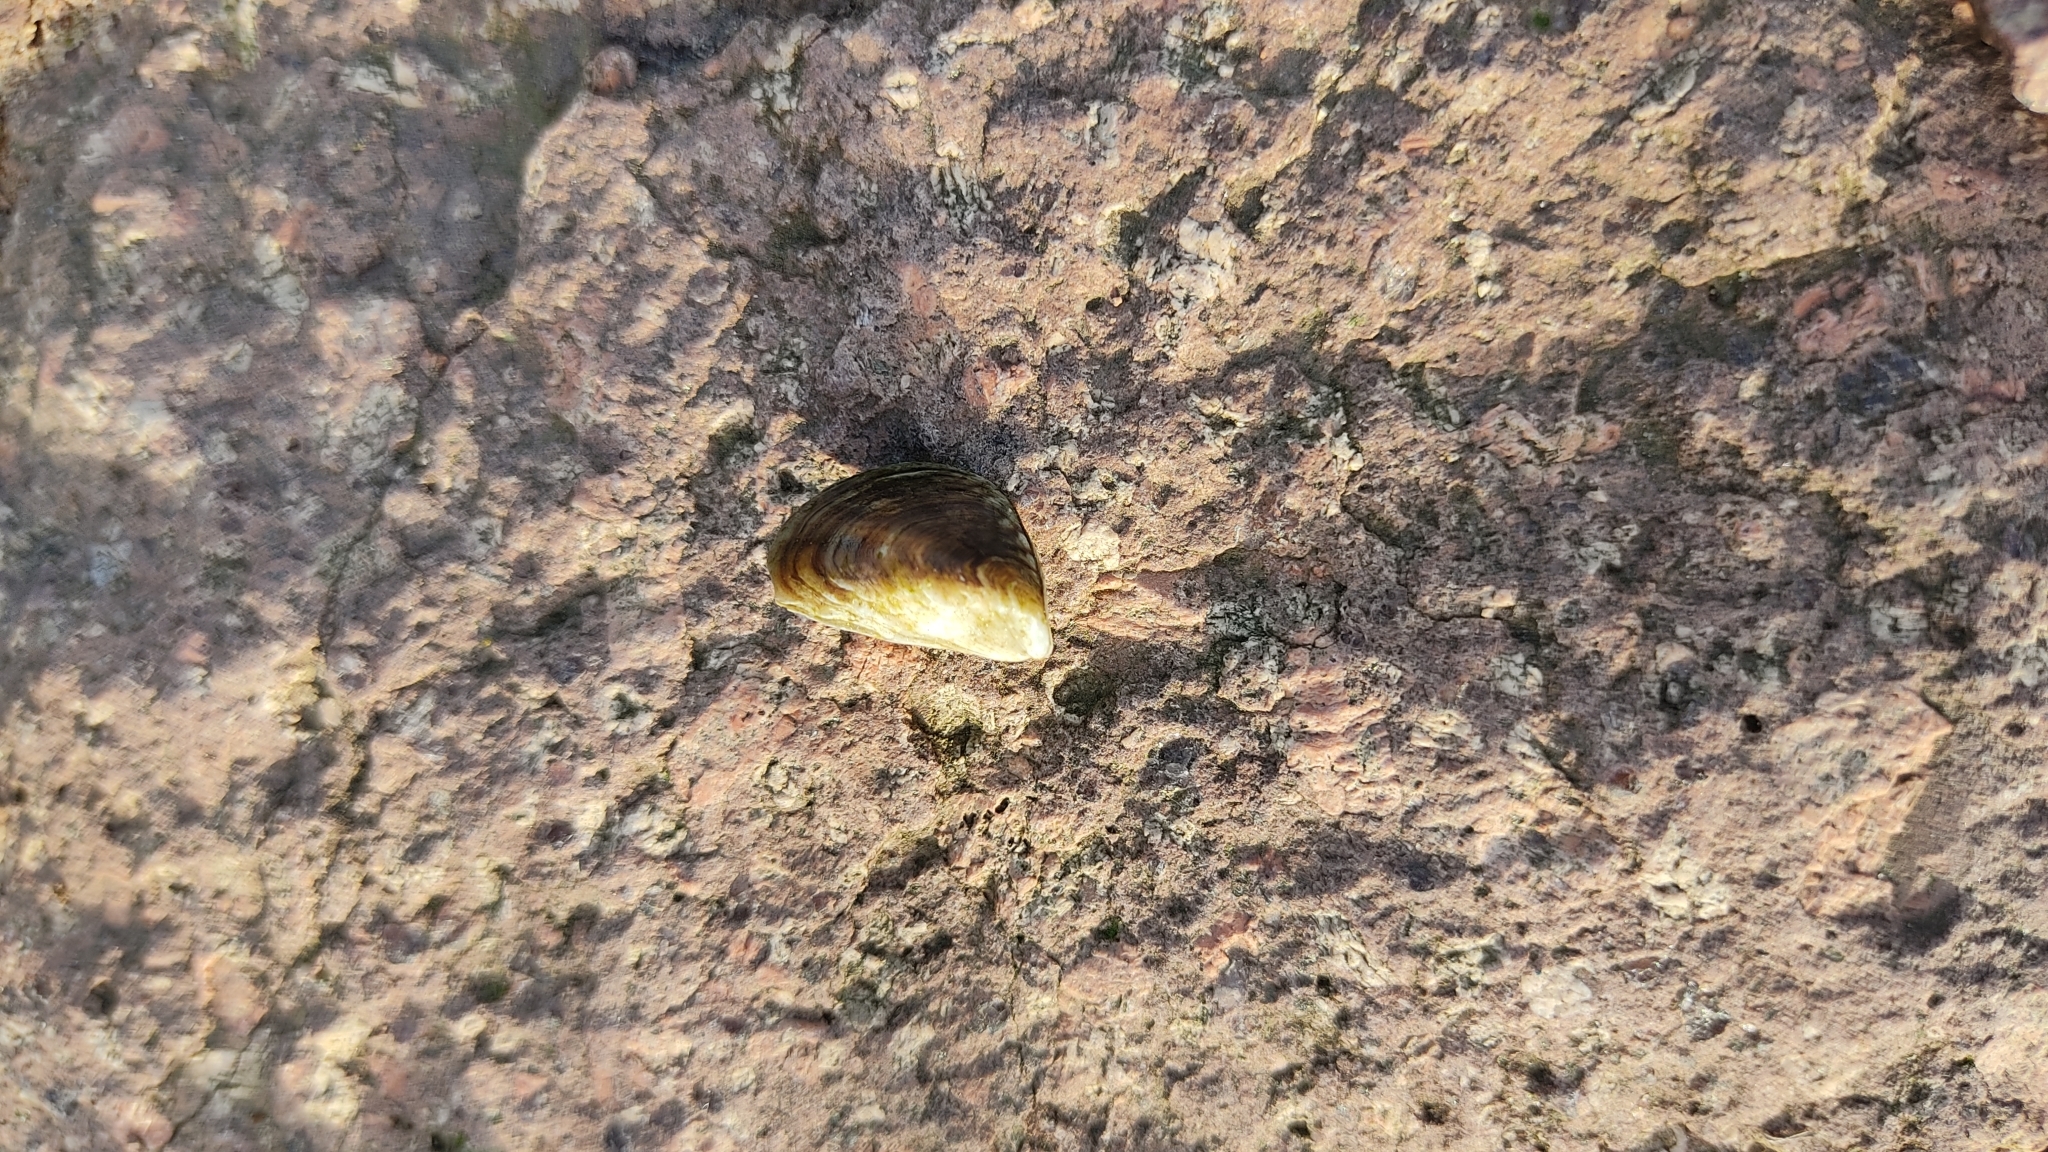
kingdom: Animalia
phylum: Mollusca
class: Bivalvia
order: Myida
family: Dreissenidae
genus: Dreissena
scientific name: Dreissena bugensis
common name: Quagga mussel
